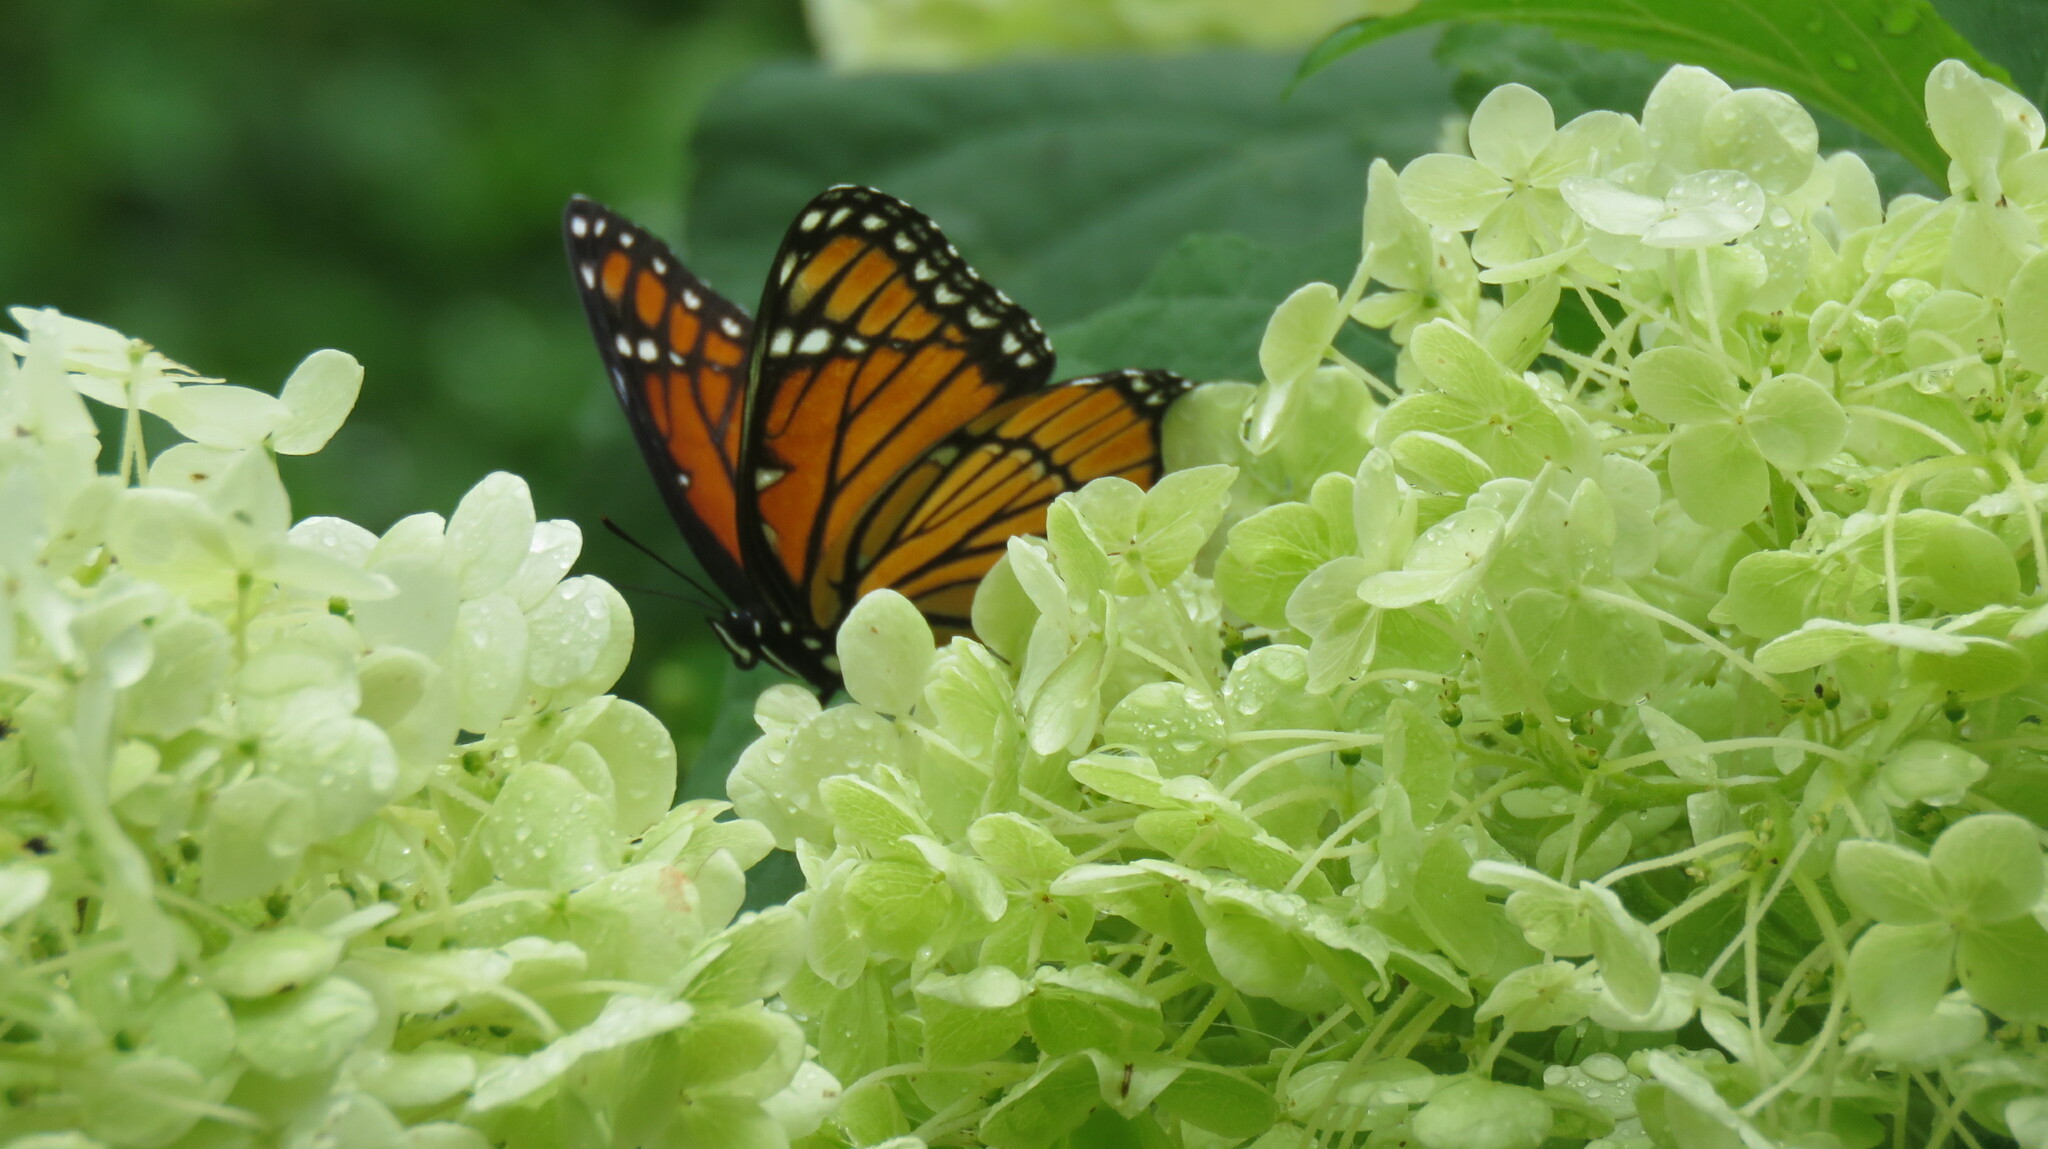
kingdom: Animalia
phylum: Arthropoda
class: Insecta
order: Lepidoptera
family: Nymphalidae
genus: Limenitis
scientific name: Limenitis archippus
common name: Viceroy
